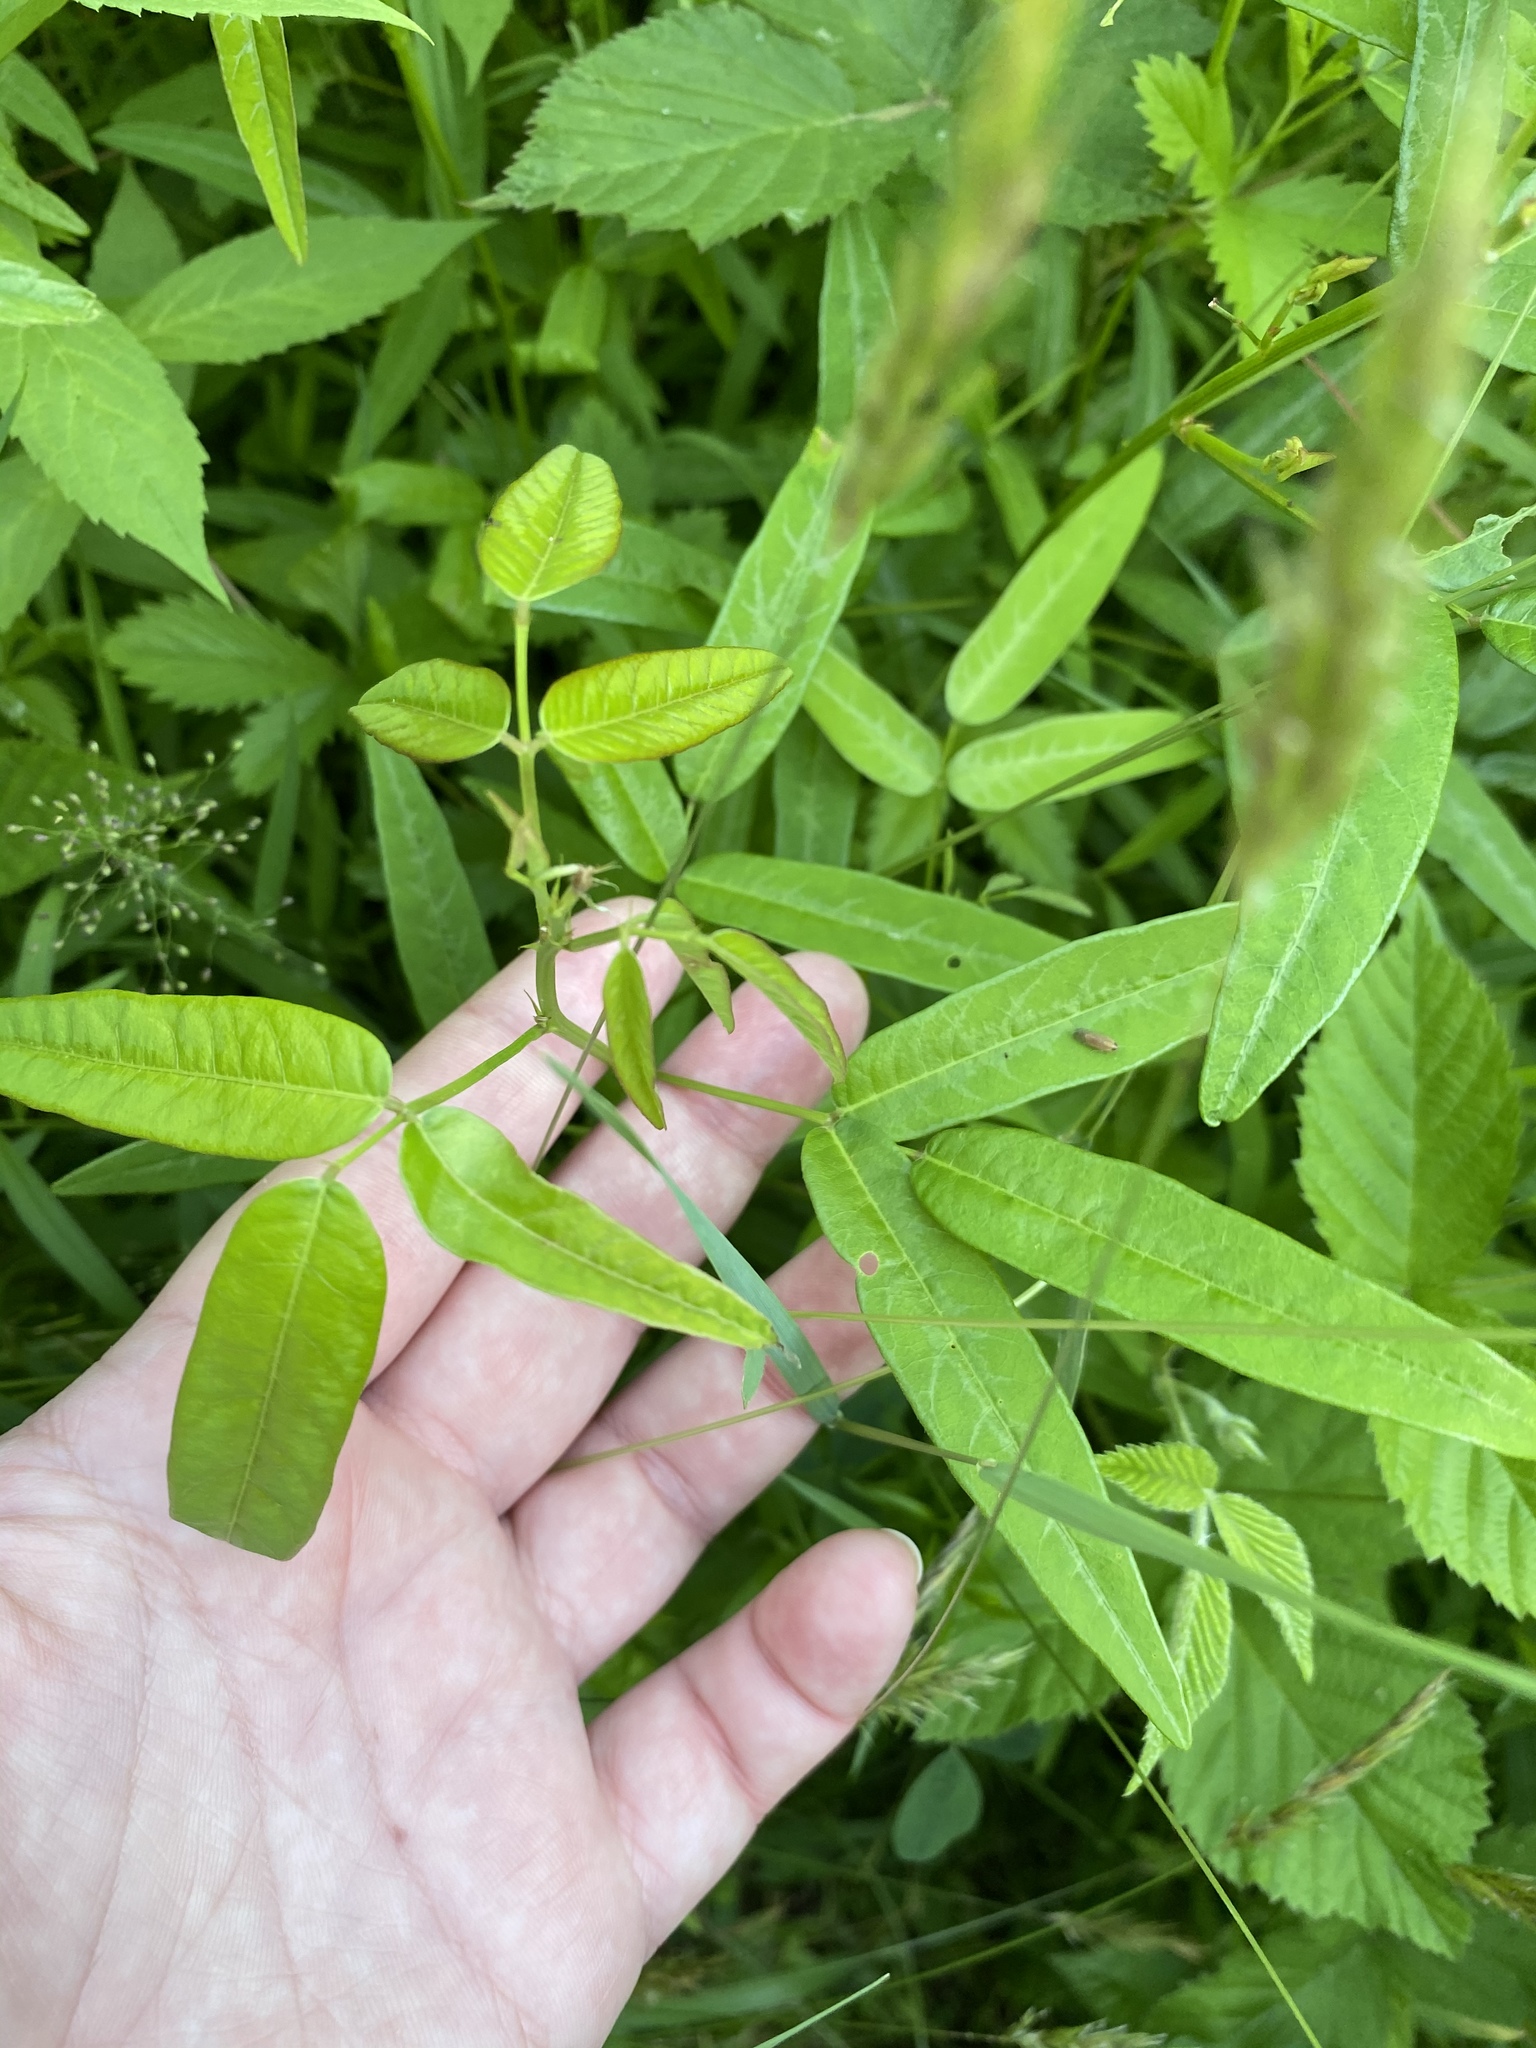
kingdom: Plantae
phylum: Tracheophyta
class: Magnoliopsida
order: Fabales
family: Fabaceae
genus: Desmodium
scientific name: Desmodium paniculatum
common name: Panicled tick-clover
